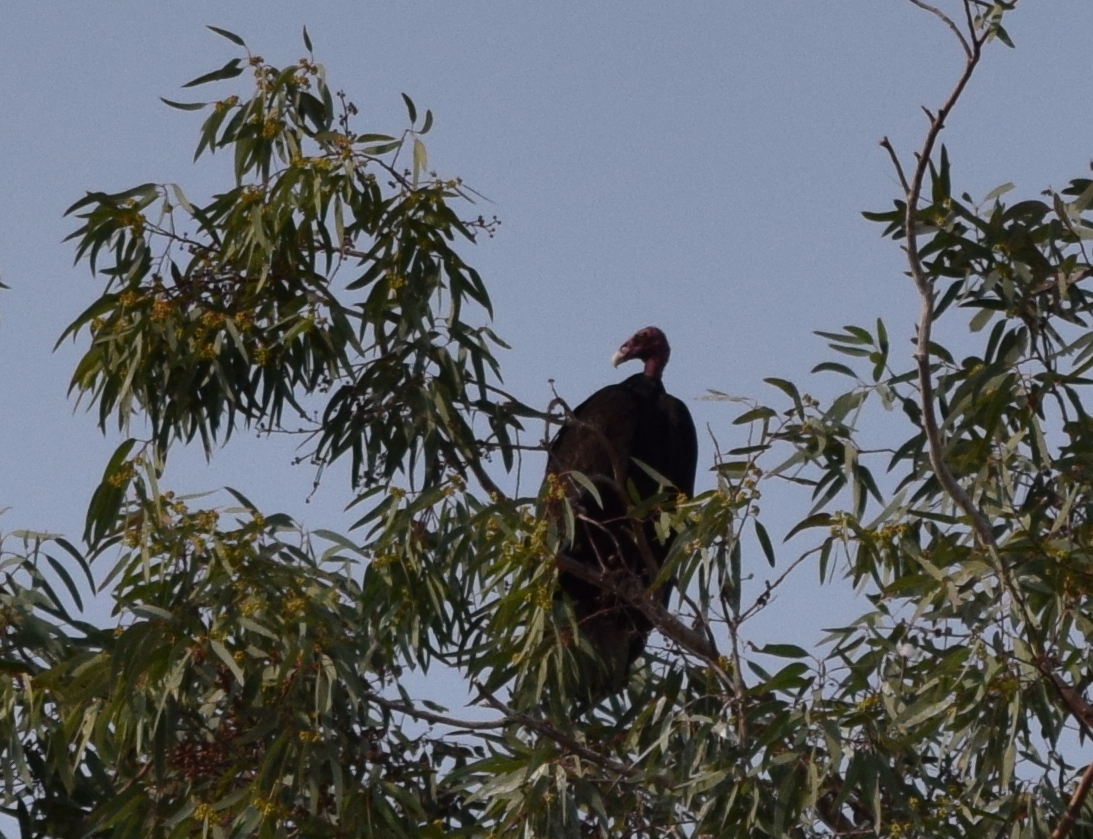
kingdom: Animalia
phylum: Chordata
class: Aves
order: Accipitriformes
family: Cathartidae
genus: Cathartes
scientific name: Cathartes aura
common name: Turkey vulture
